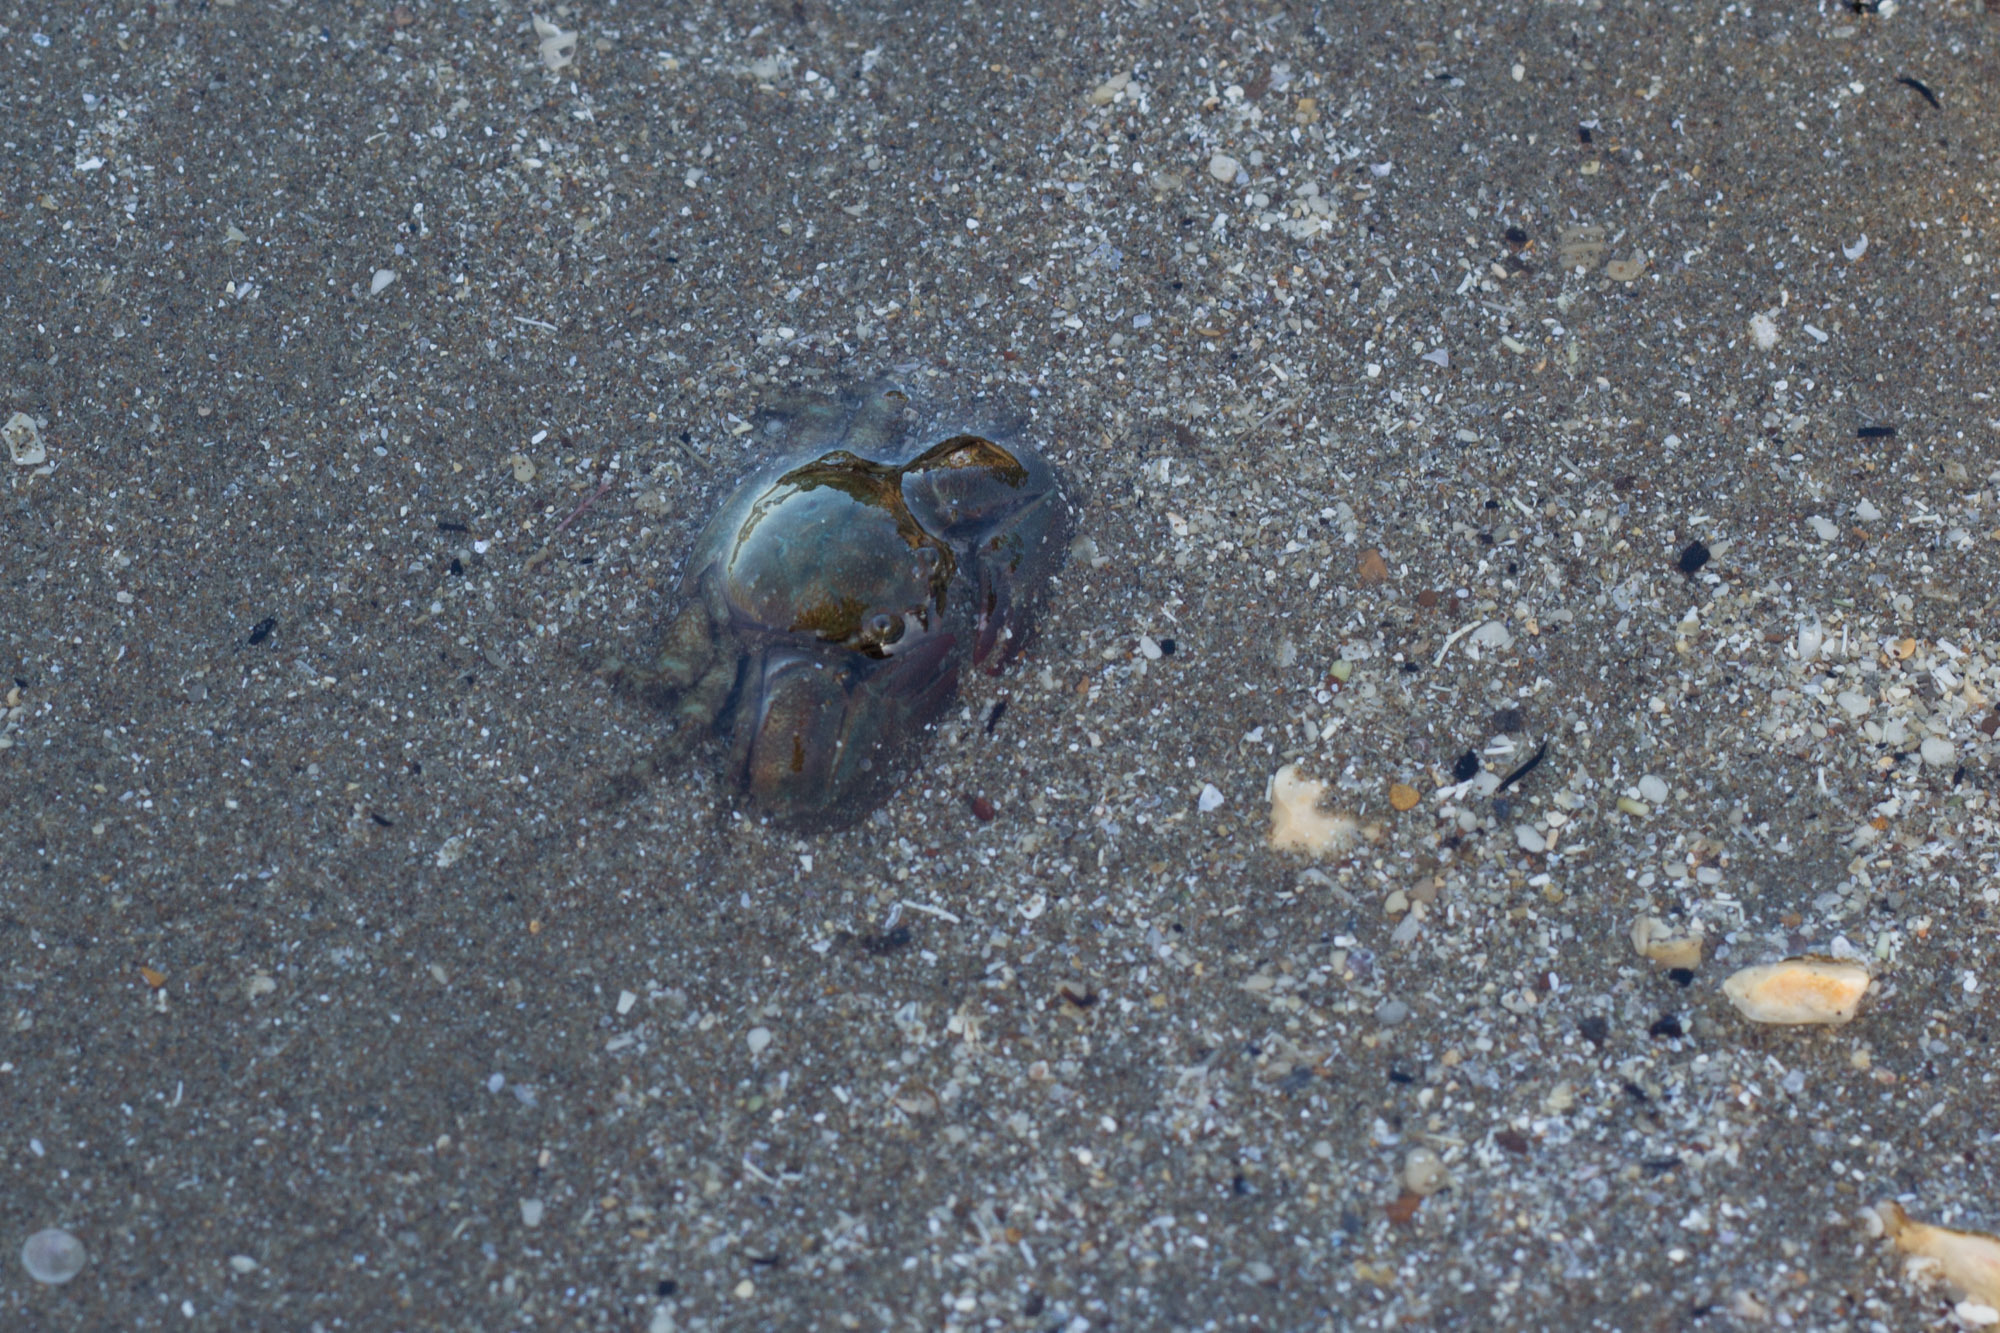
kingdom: Animalia
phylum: Arthropoda
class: Malacostraca
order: Decapoda
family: Porcellanidae
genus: Petrolisthes
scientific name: Petrolisthes elongatus
